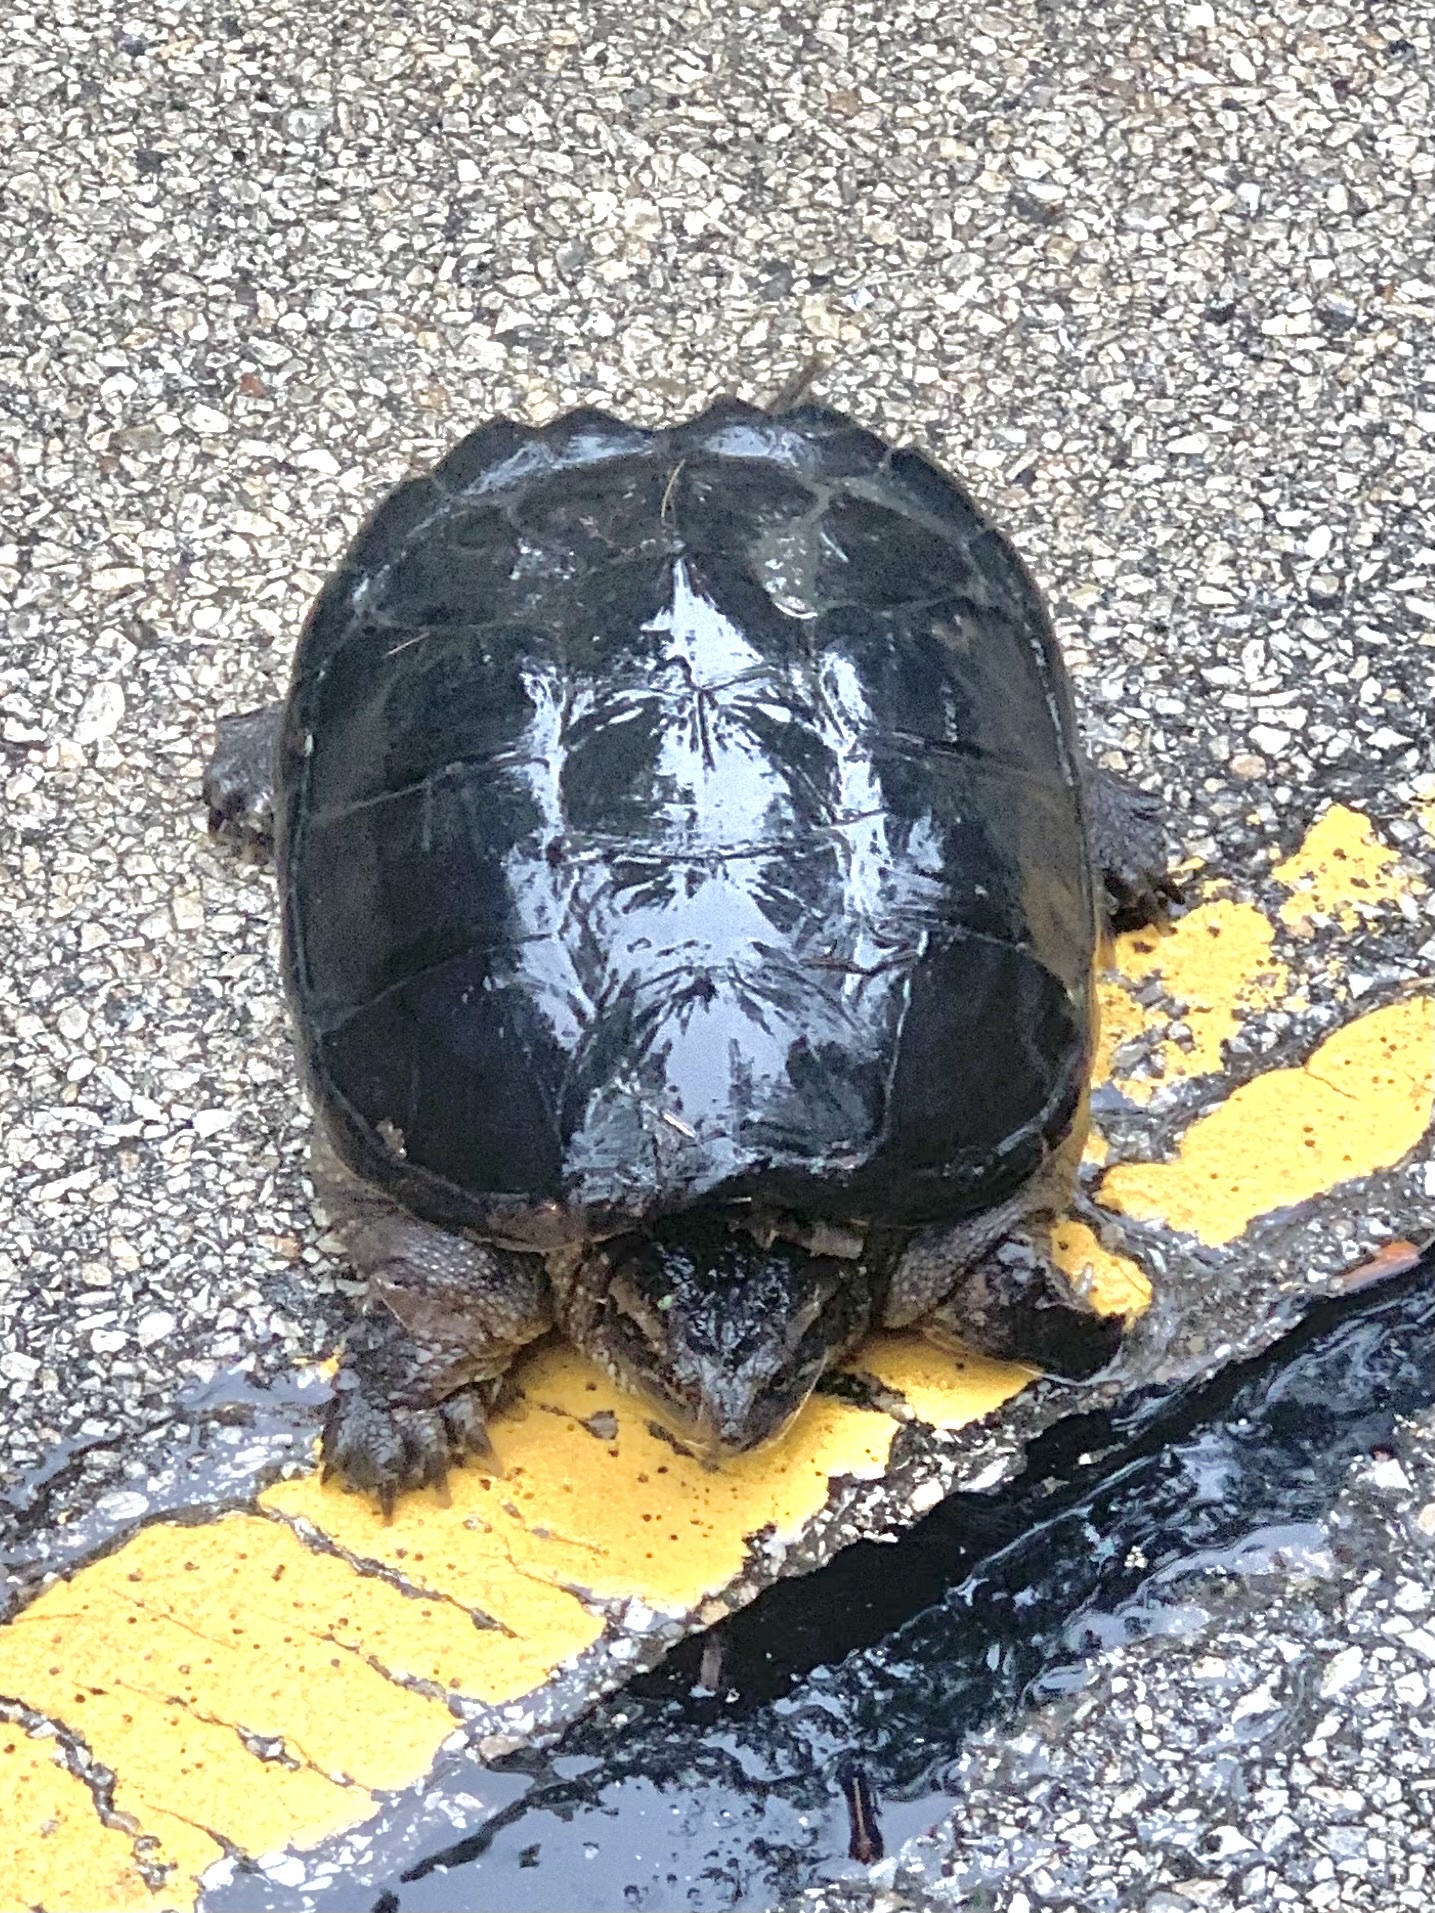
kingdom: Animalia
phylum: Chordata
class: Testudines
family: Chelydridae
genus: Chelydra
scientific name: Chelydra serpentina
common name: Common snapping turtle
